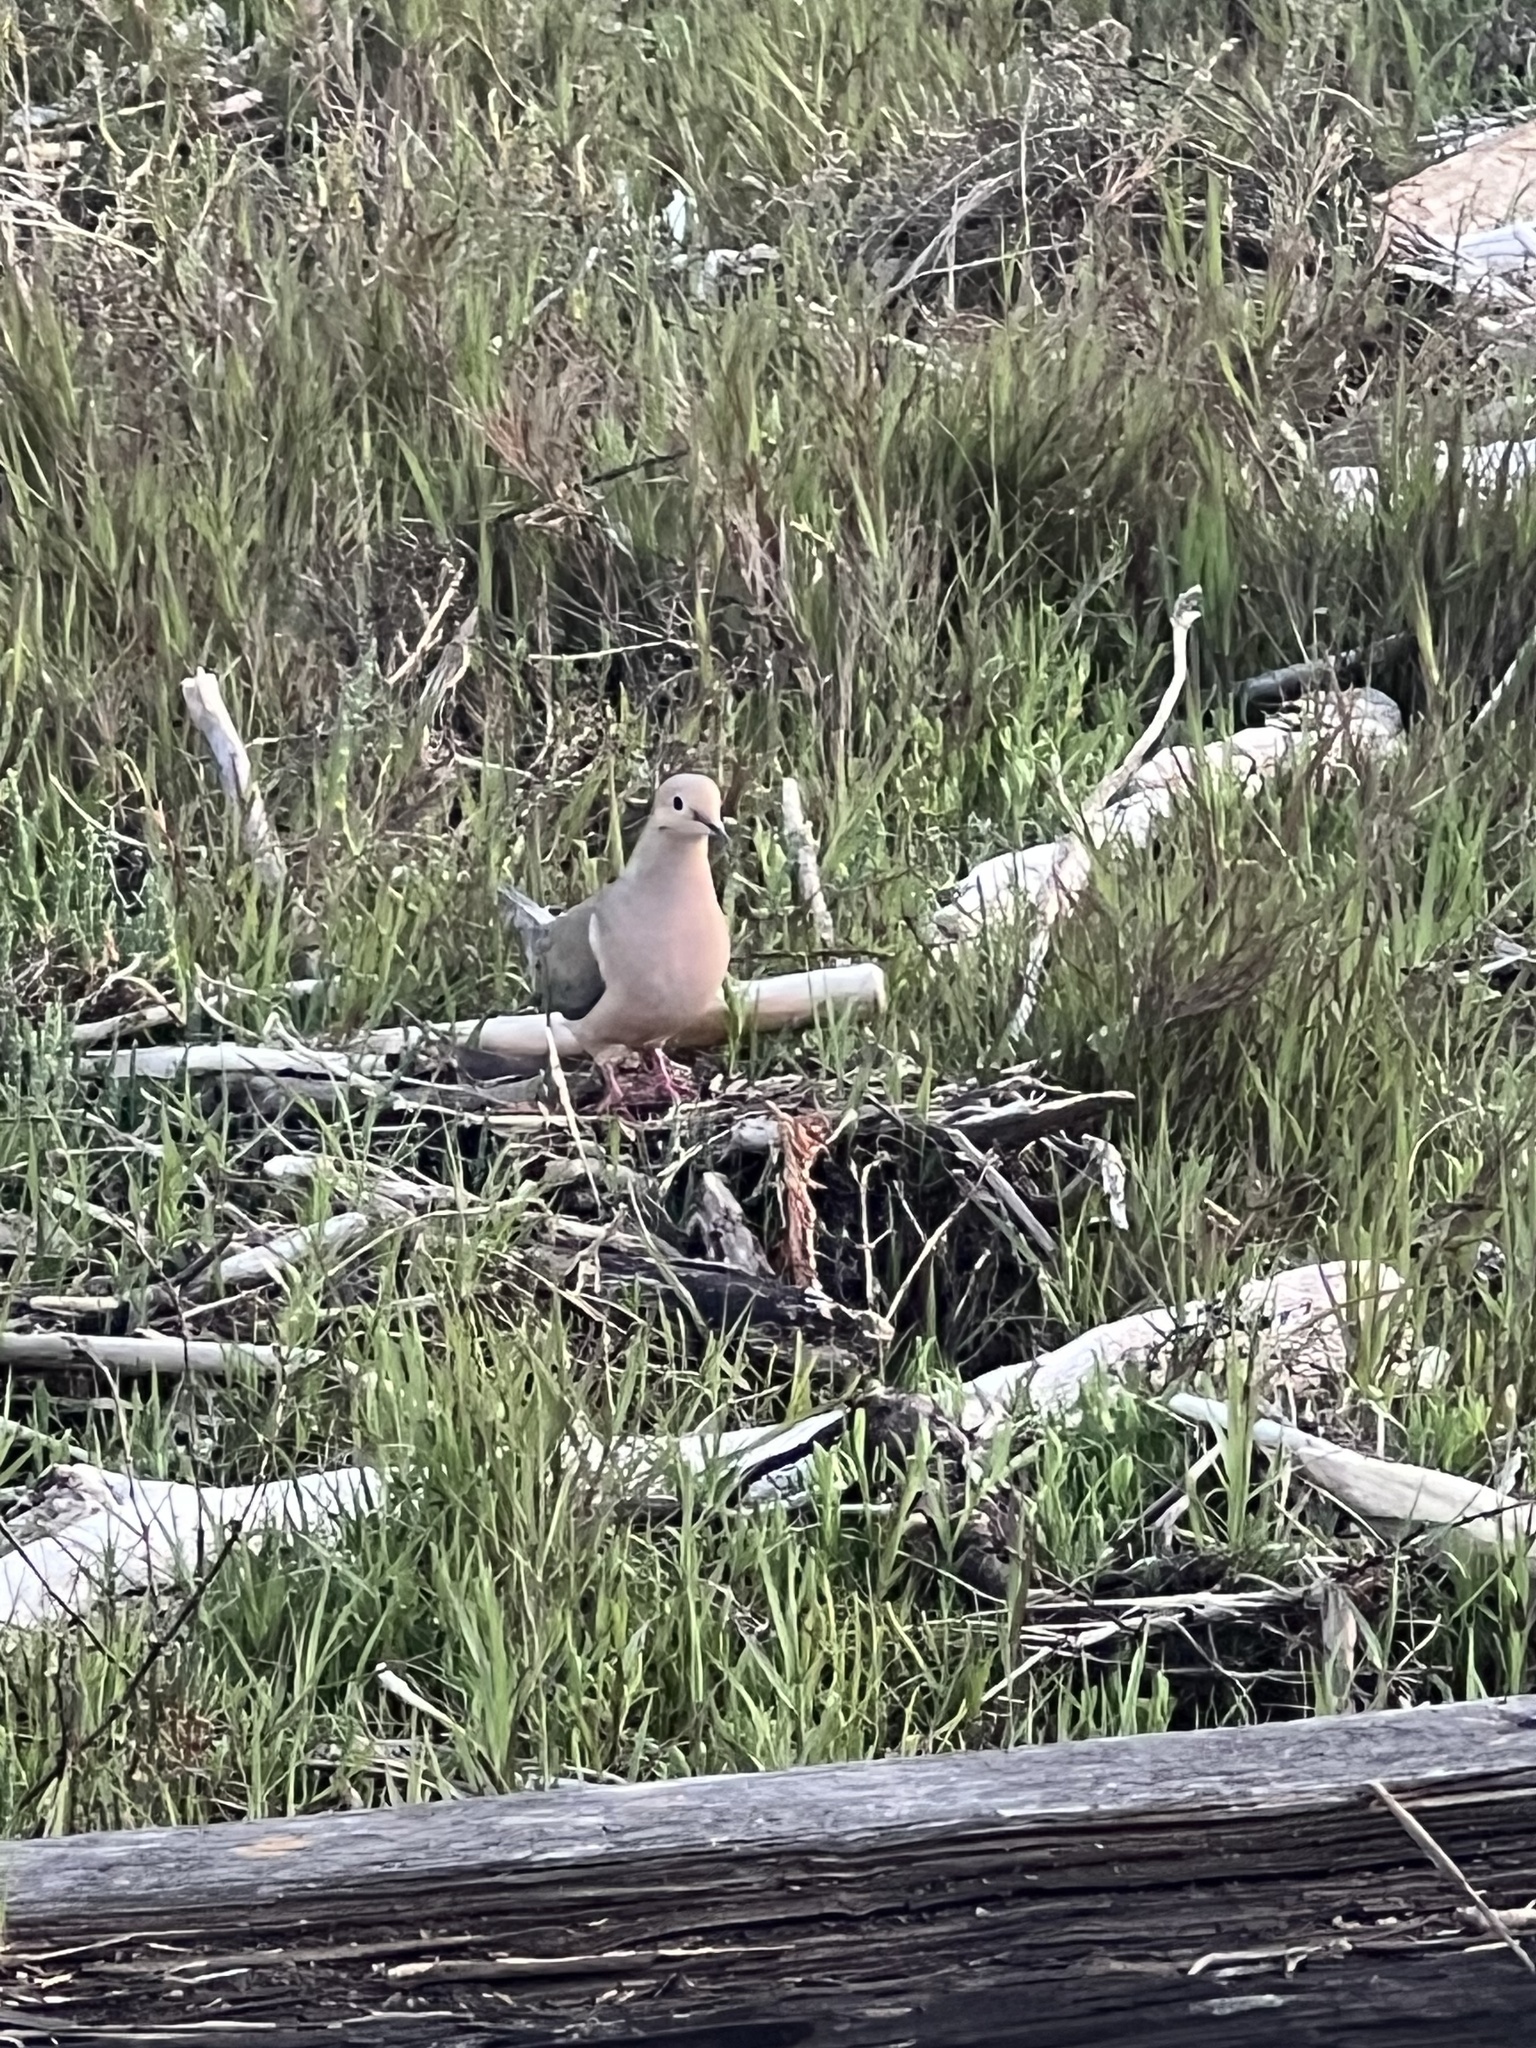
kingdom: Animalia
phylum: Chordata
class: Aves
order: Columbiformes
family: Columbidae
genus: Zenaida
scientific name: Zenaida macroura
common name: Mourning dove
